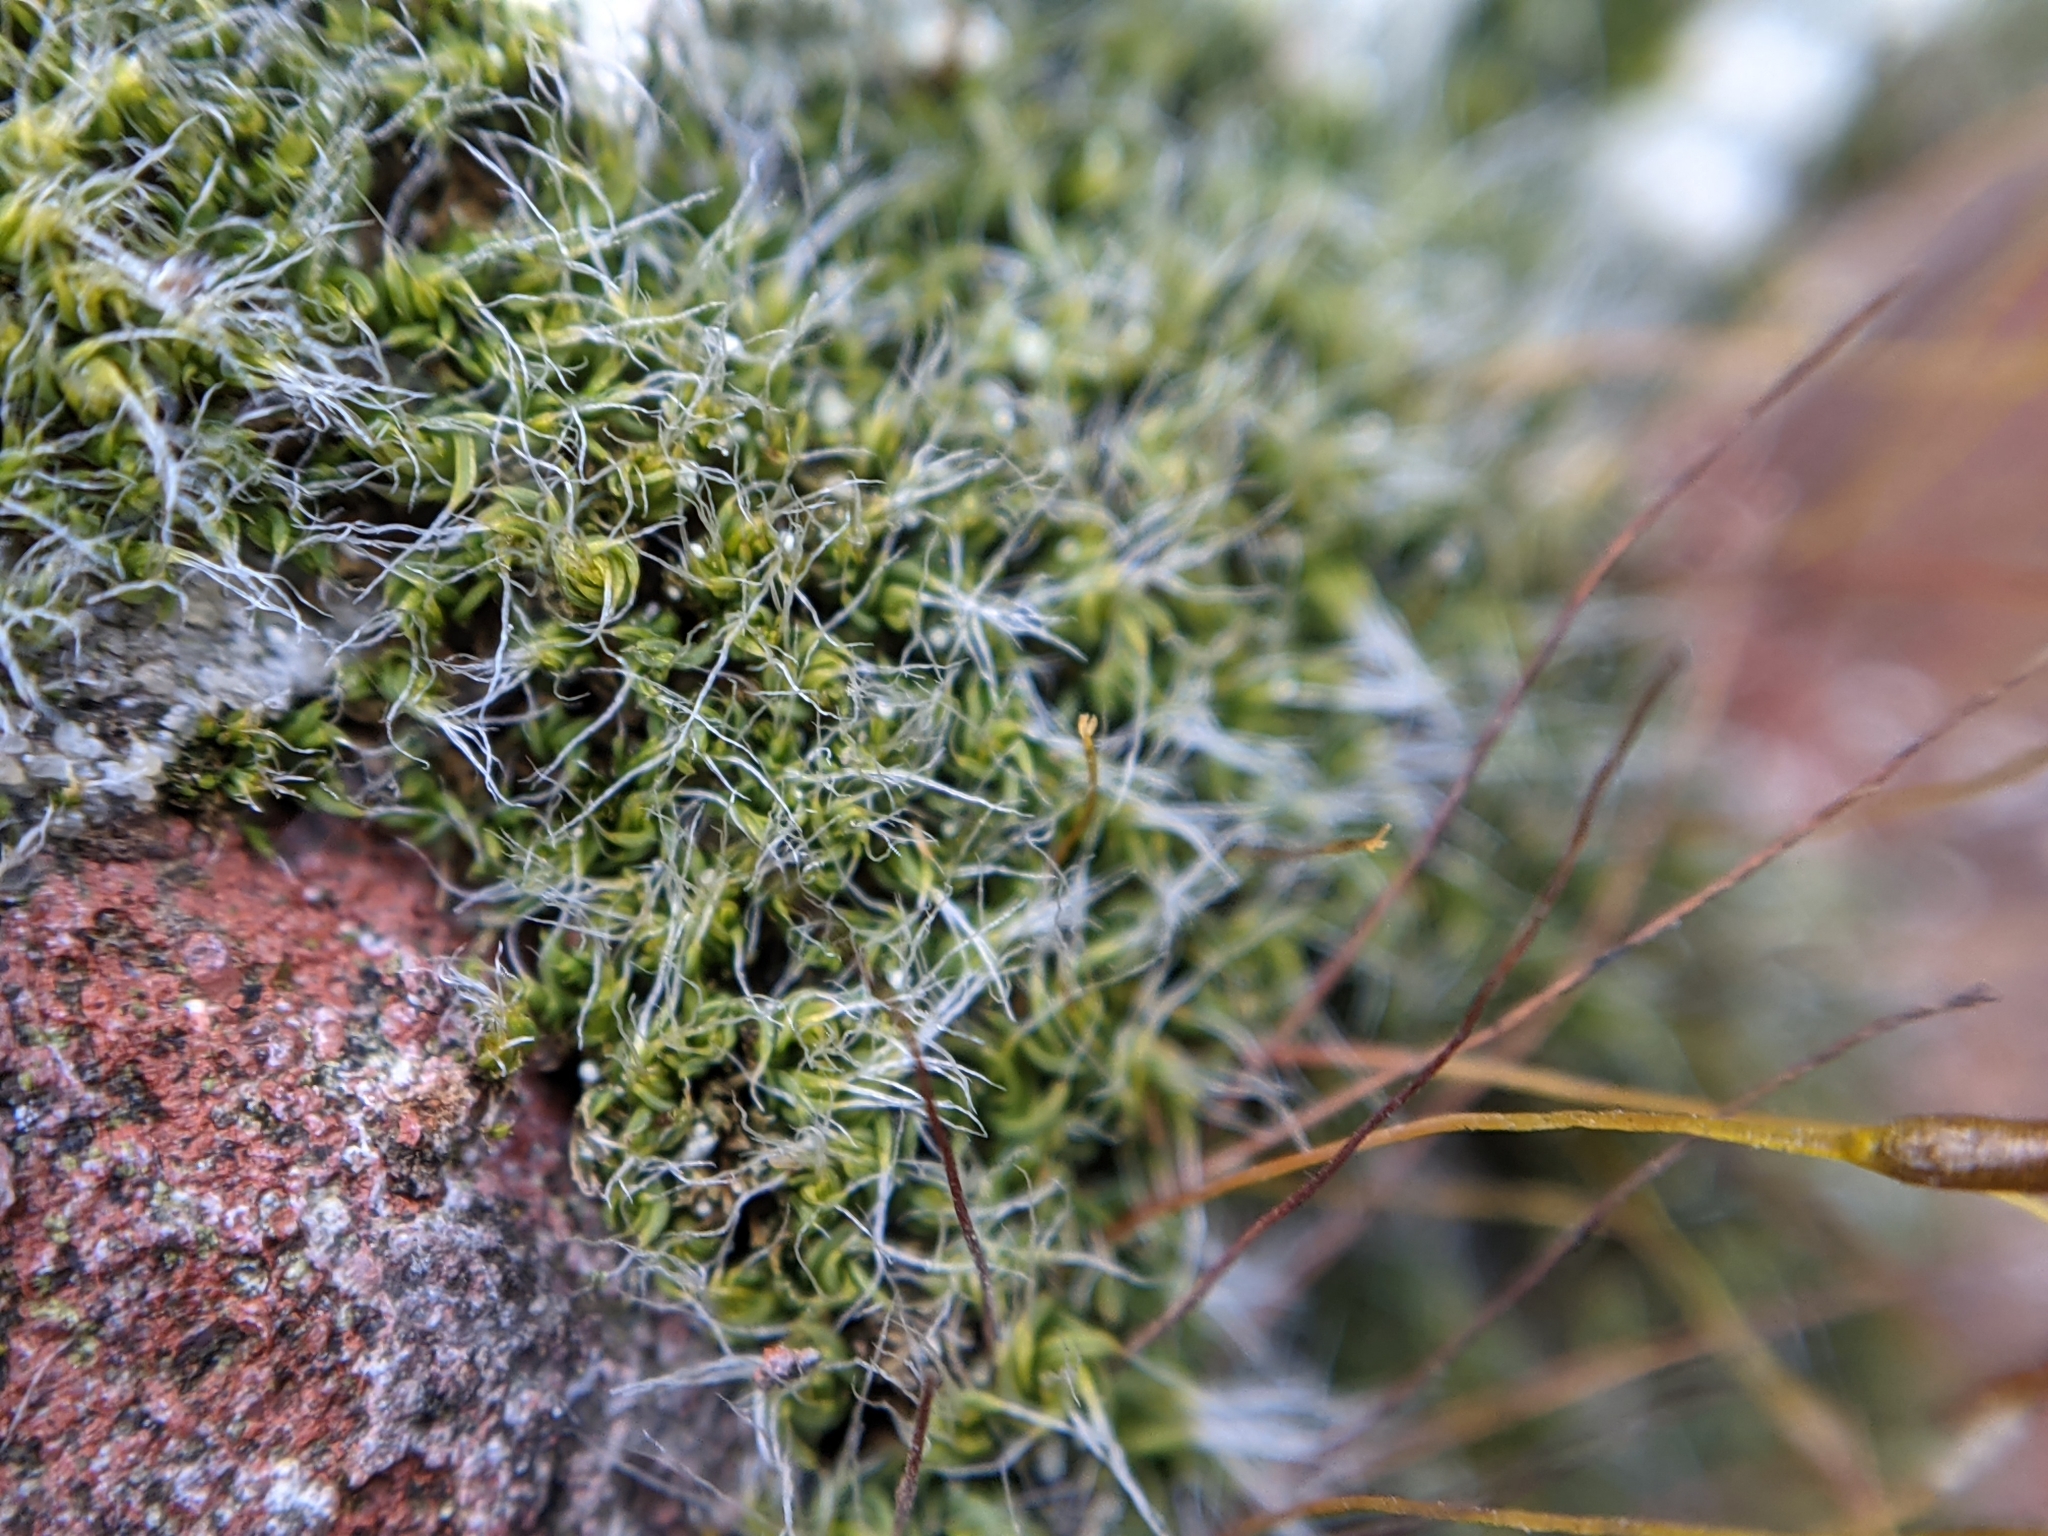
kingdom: Plantae
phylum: Bryophyta
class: Bryopsida
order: Pottiales
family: Pottiaceae
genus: Tortula
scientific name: Tortula muralis
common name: Wall screw-moss
